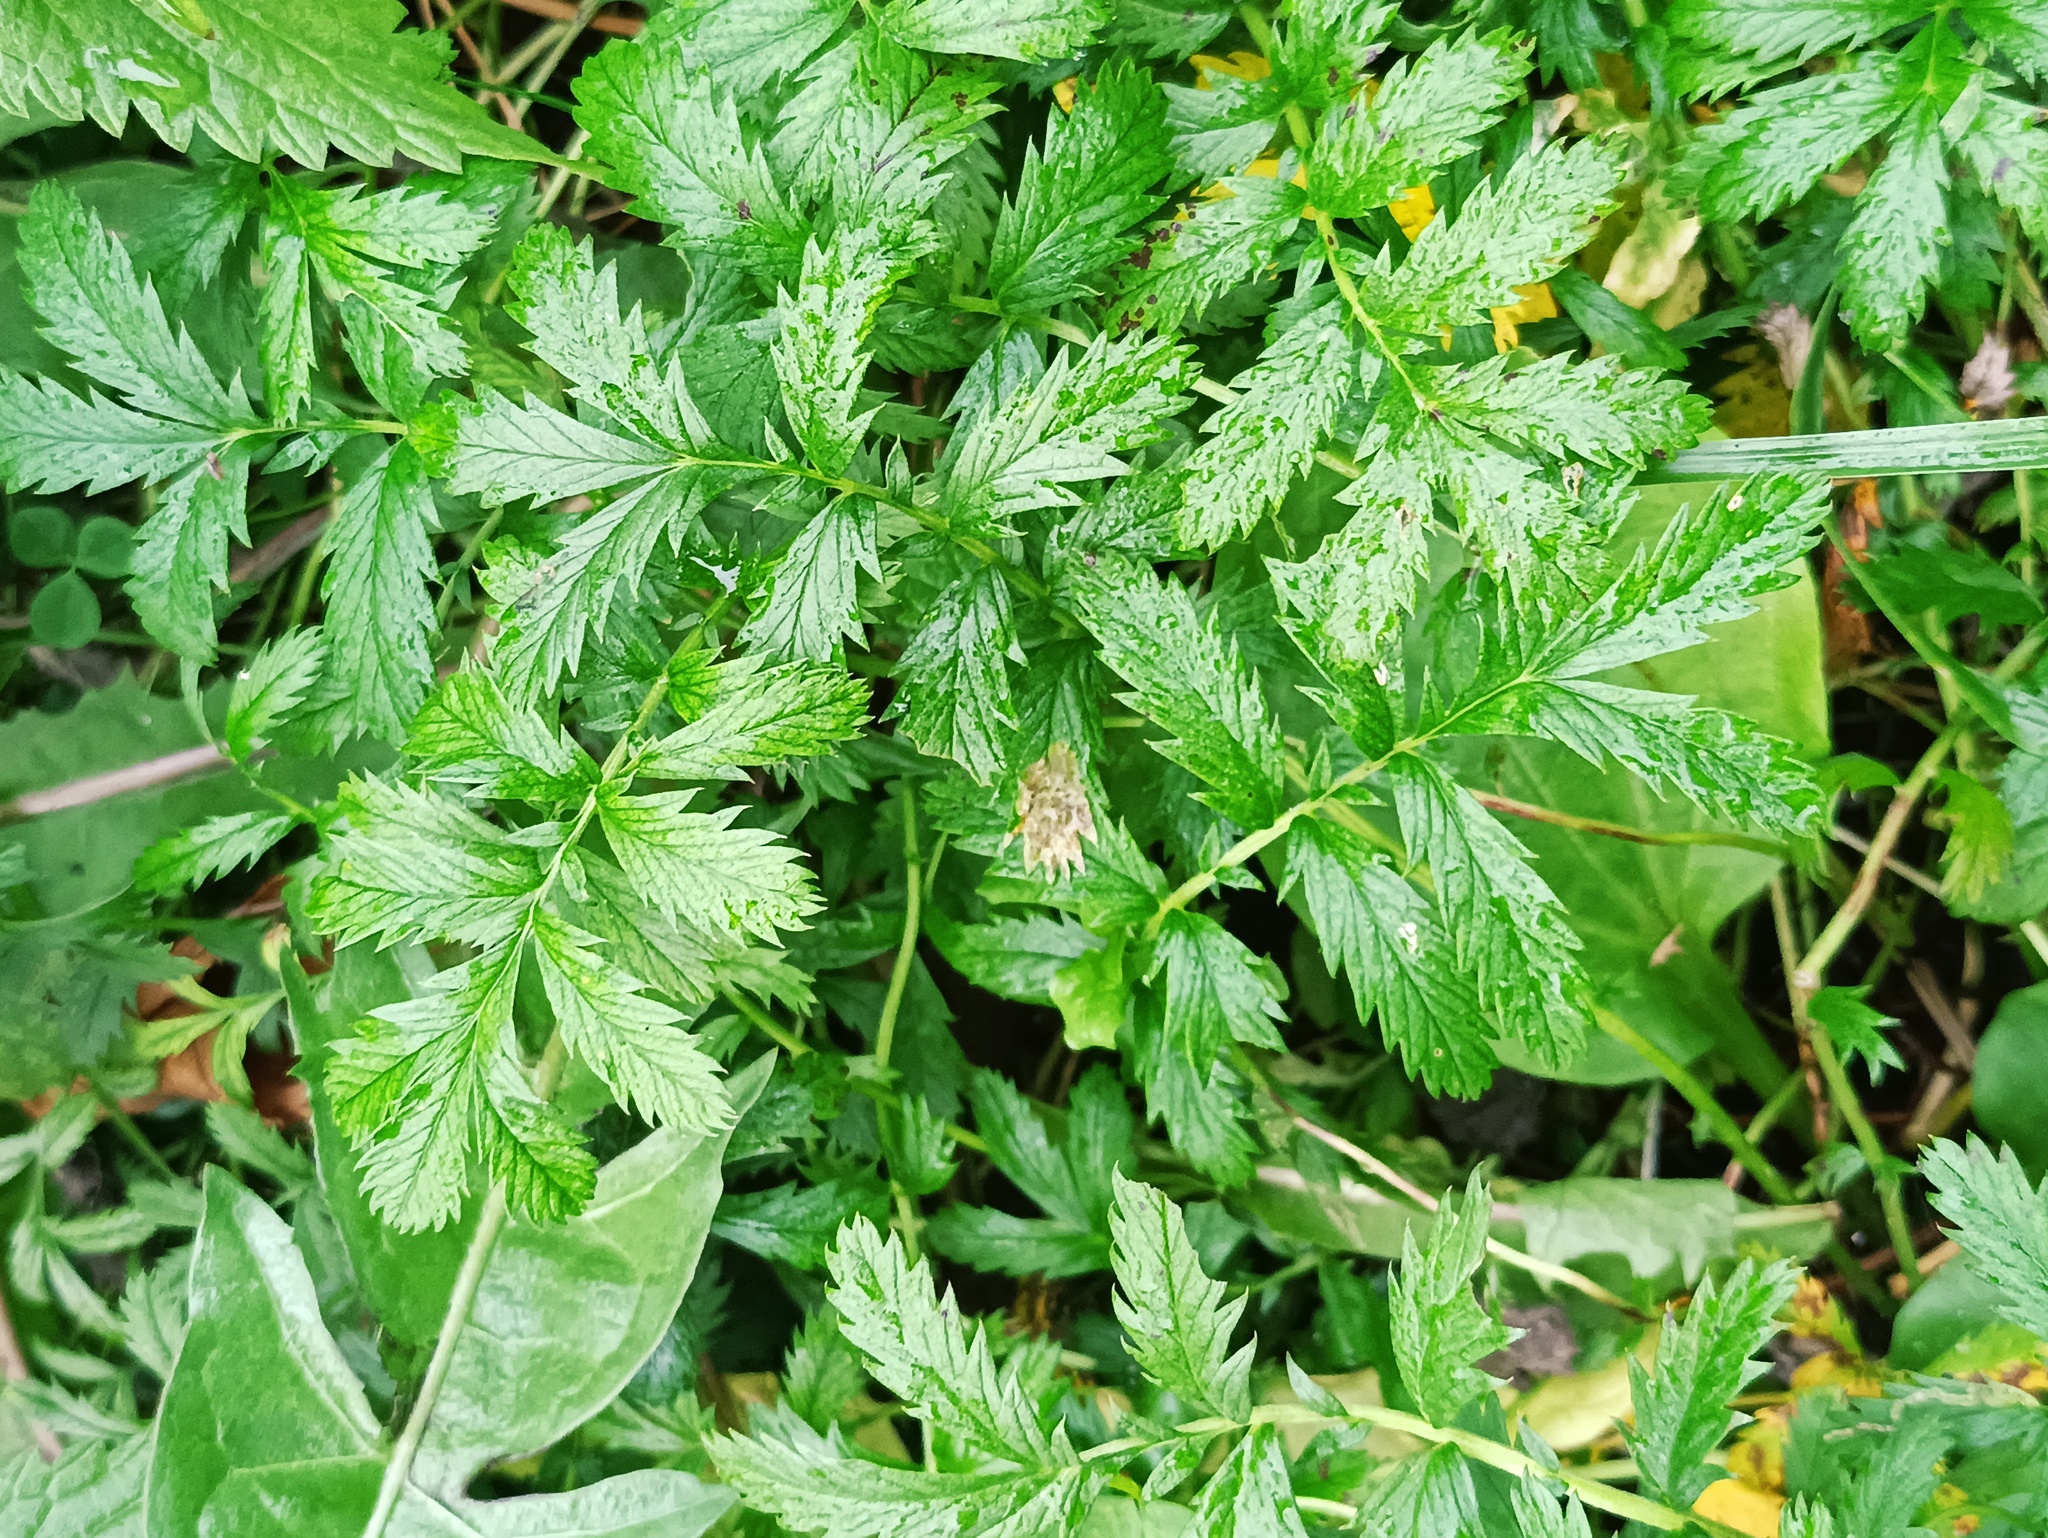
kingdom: Plantae
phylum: Tracheophyta
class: Magnoliopsida
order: Rosales
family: Rosaceae
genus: Argentina
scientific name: Argentina anserina
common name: Common silverweed
